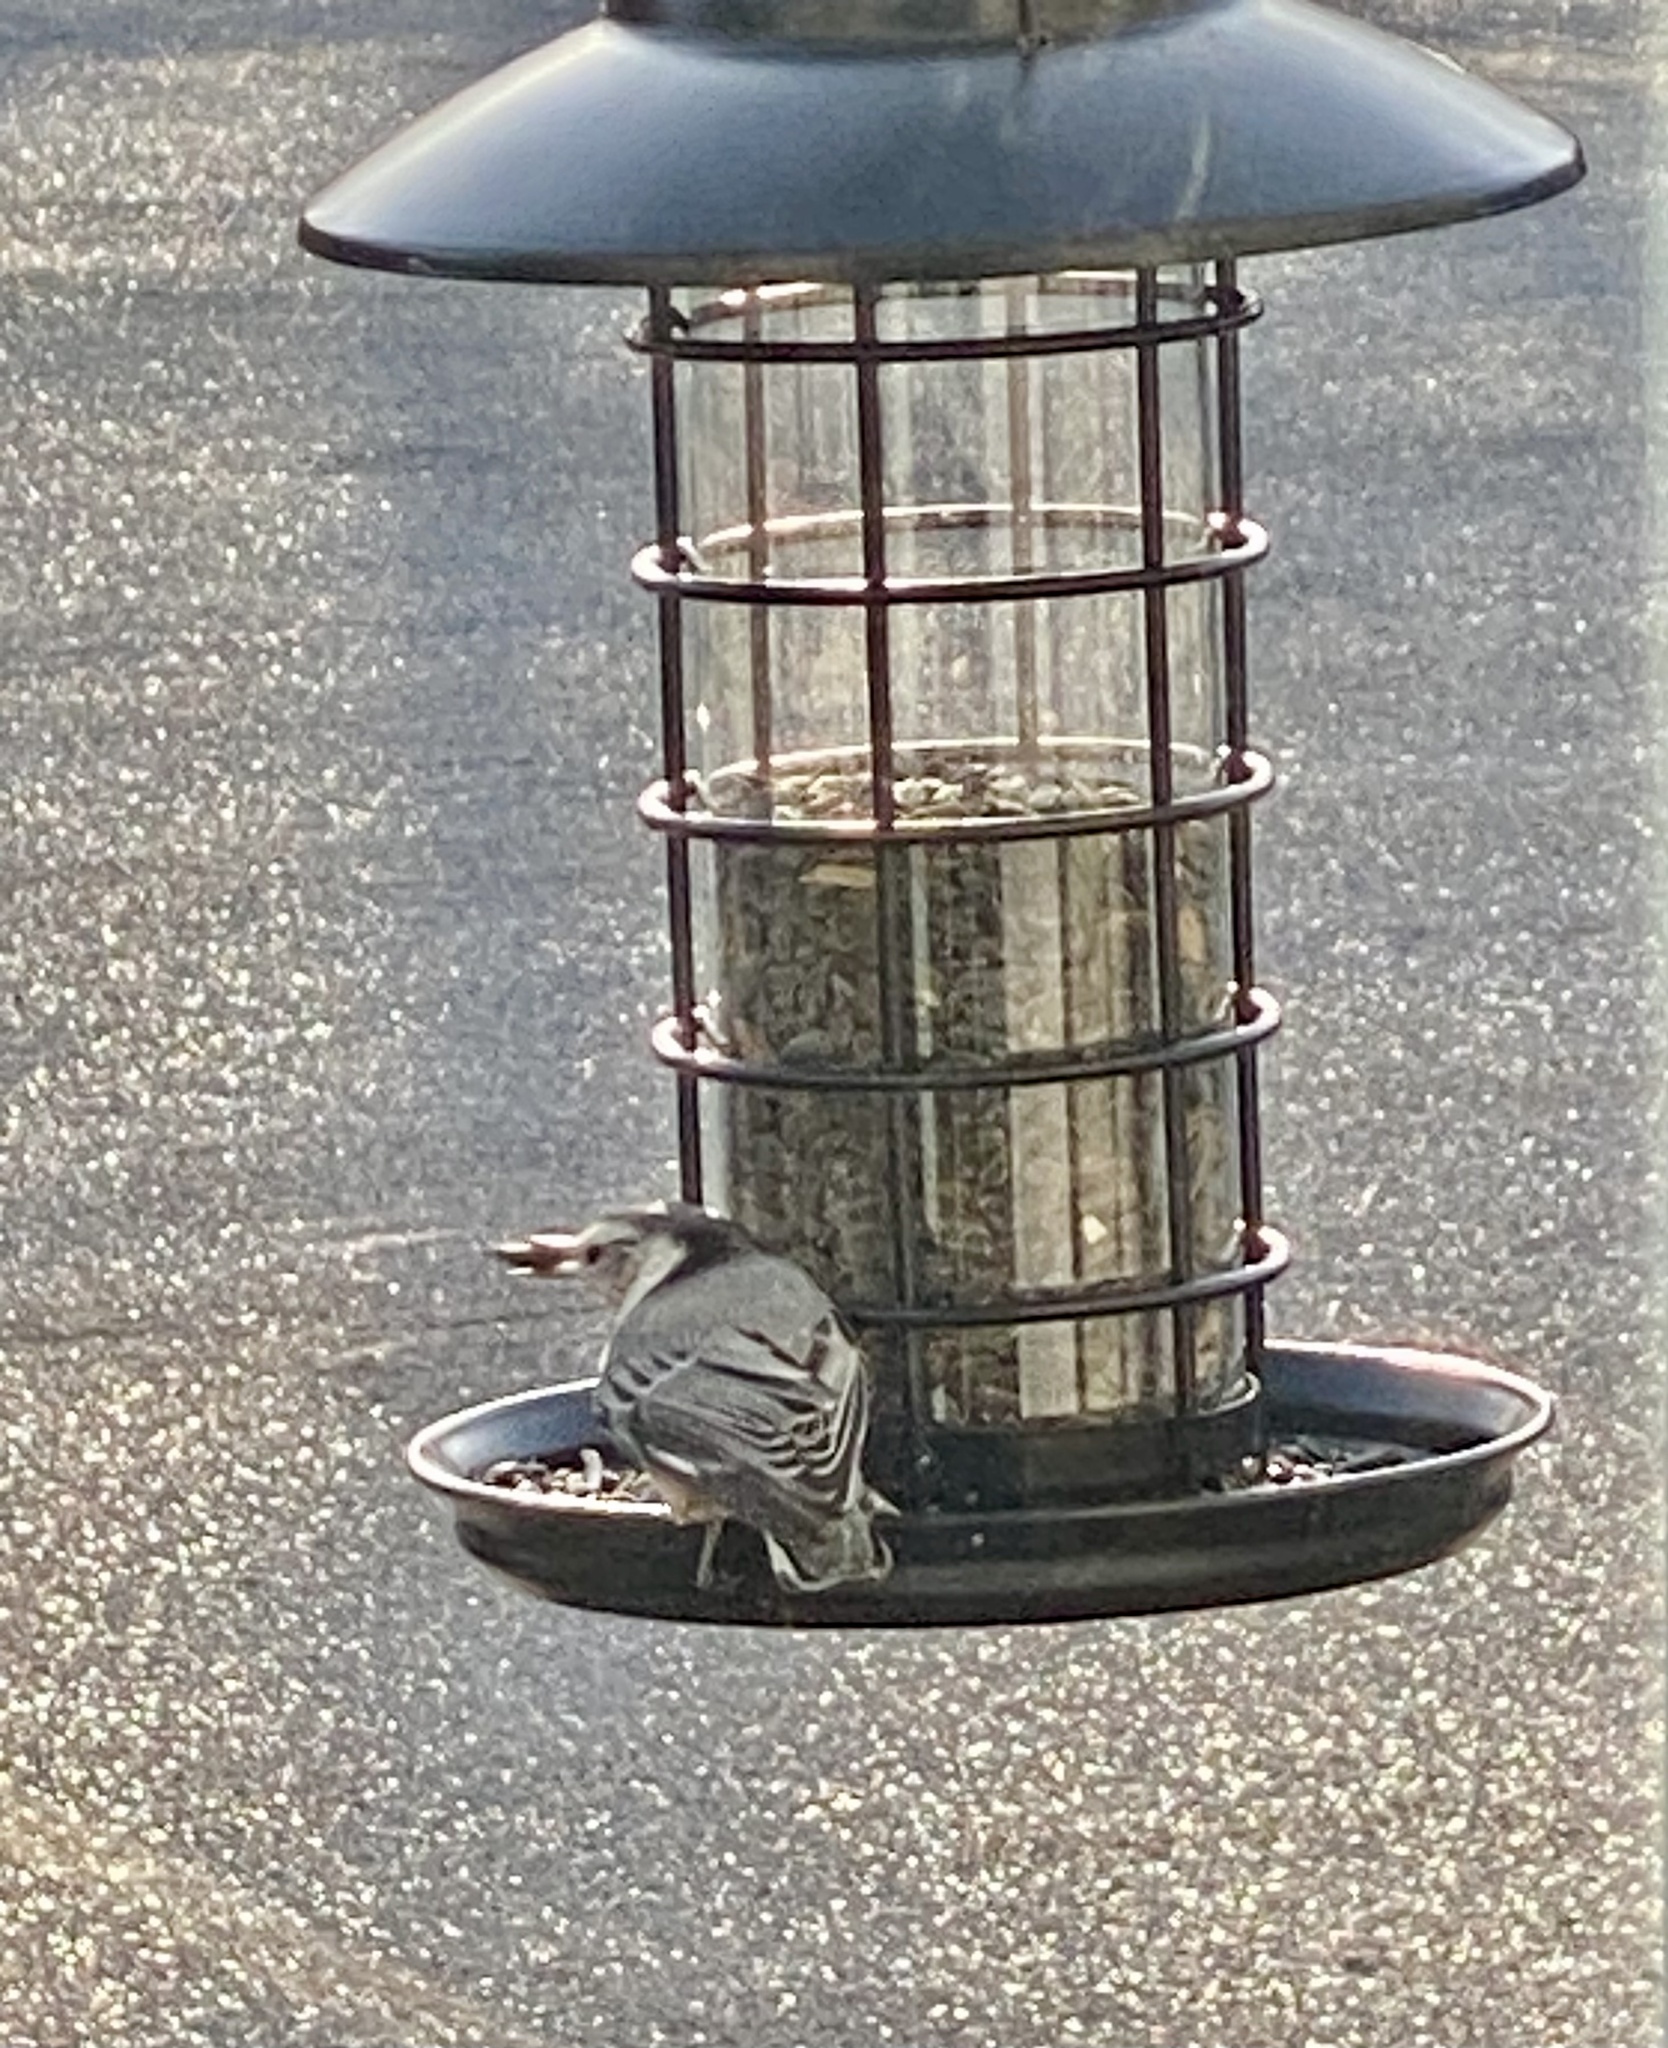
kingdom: Animalia
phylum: Chordata
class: Aves
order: Passeriformes
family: Sittidae
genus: Sitta
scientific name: Sitta carolinensis
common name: White-breasted nuthatch
